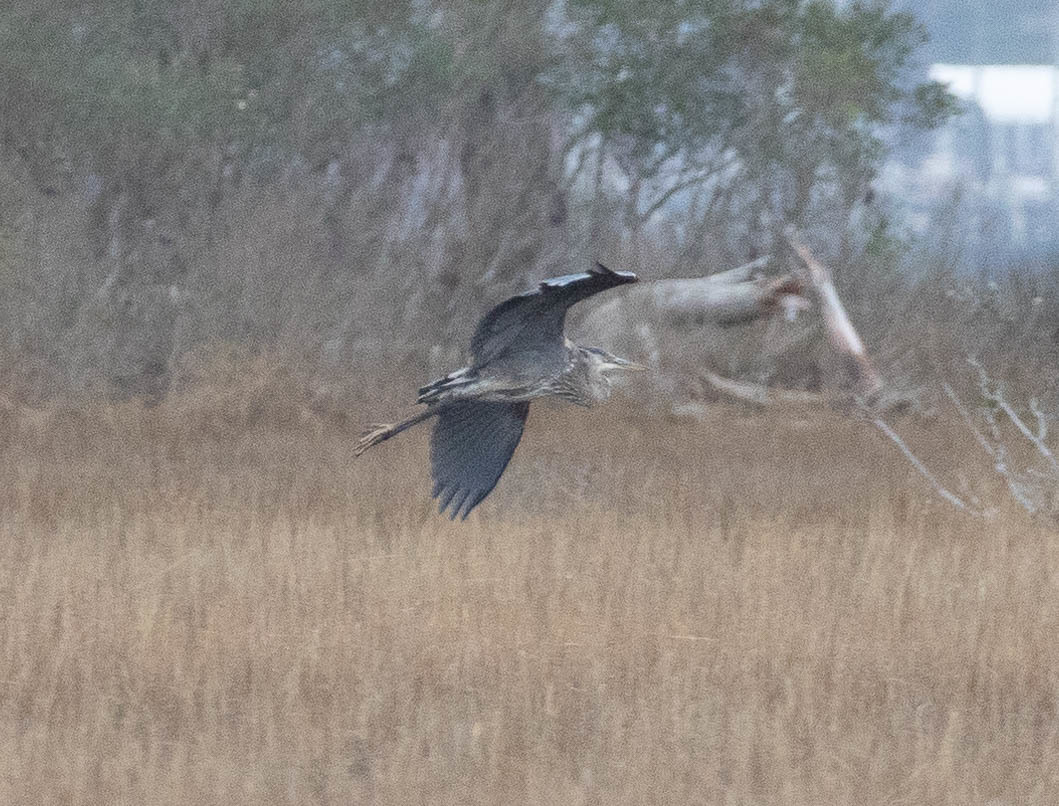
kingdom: Animalia
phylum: Chordata
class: Aves
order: Pelecaniformes
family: Ardeidae
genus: Ardea
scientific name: Ardea herodias
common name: Great blue heron
